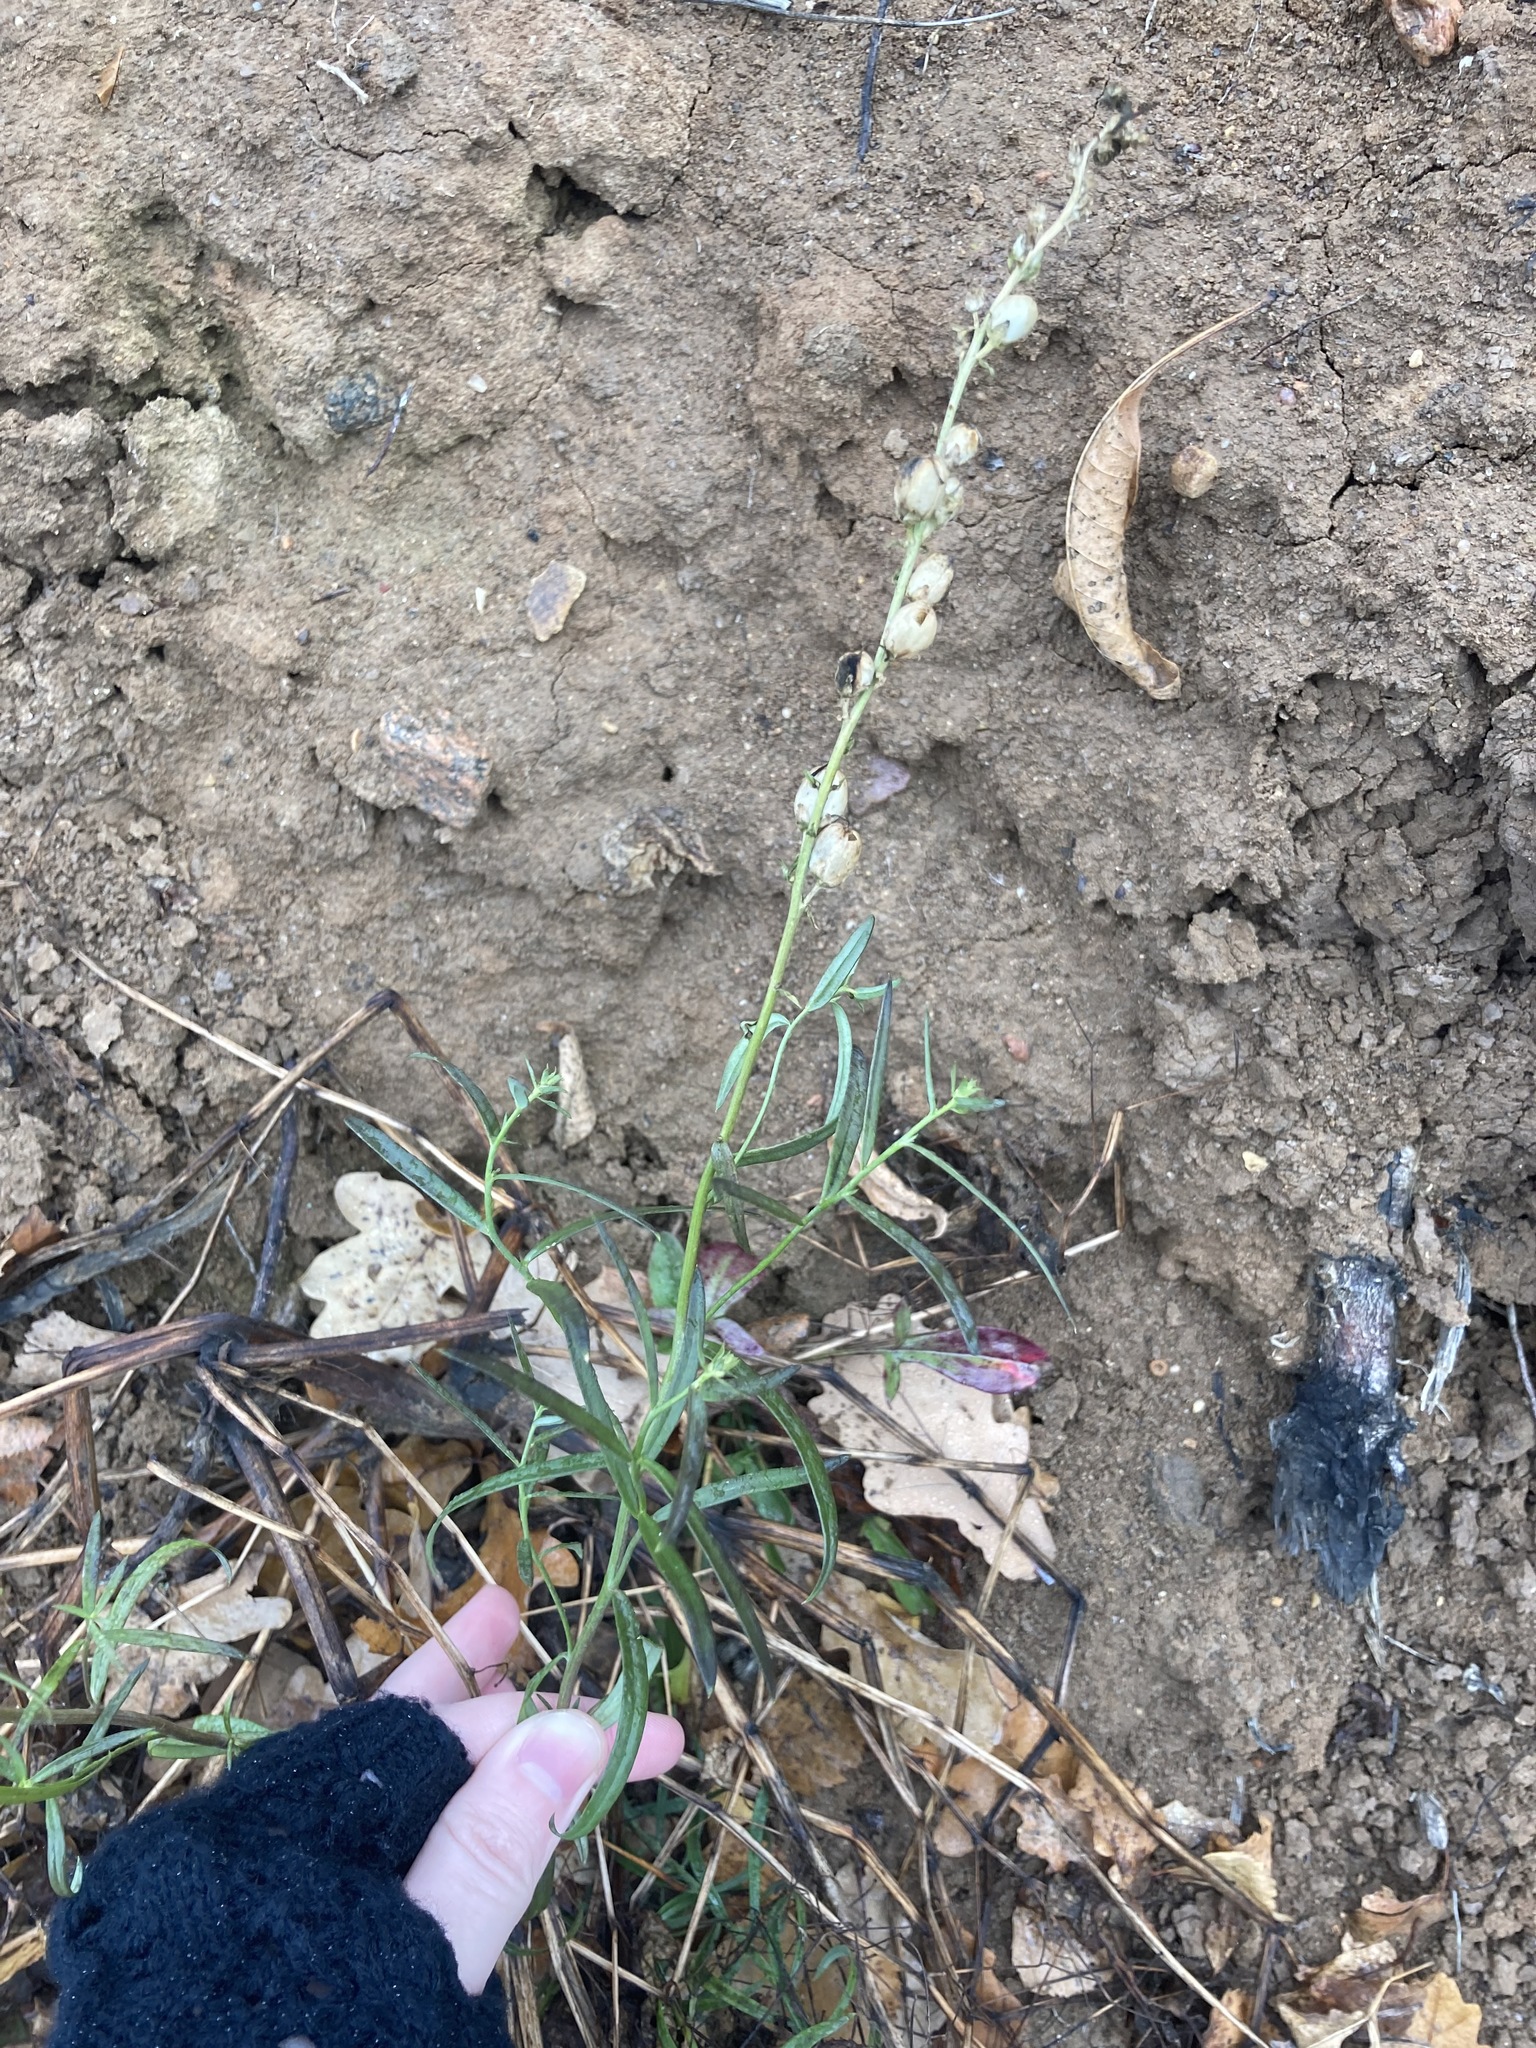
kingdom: Plantae
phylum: Tracheophyta
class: Magnoliopsida
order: Lamiales
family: Plantaginaceae
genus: Linaria
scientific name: Linaria vulgaris
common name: Butter and eggs
